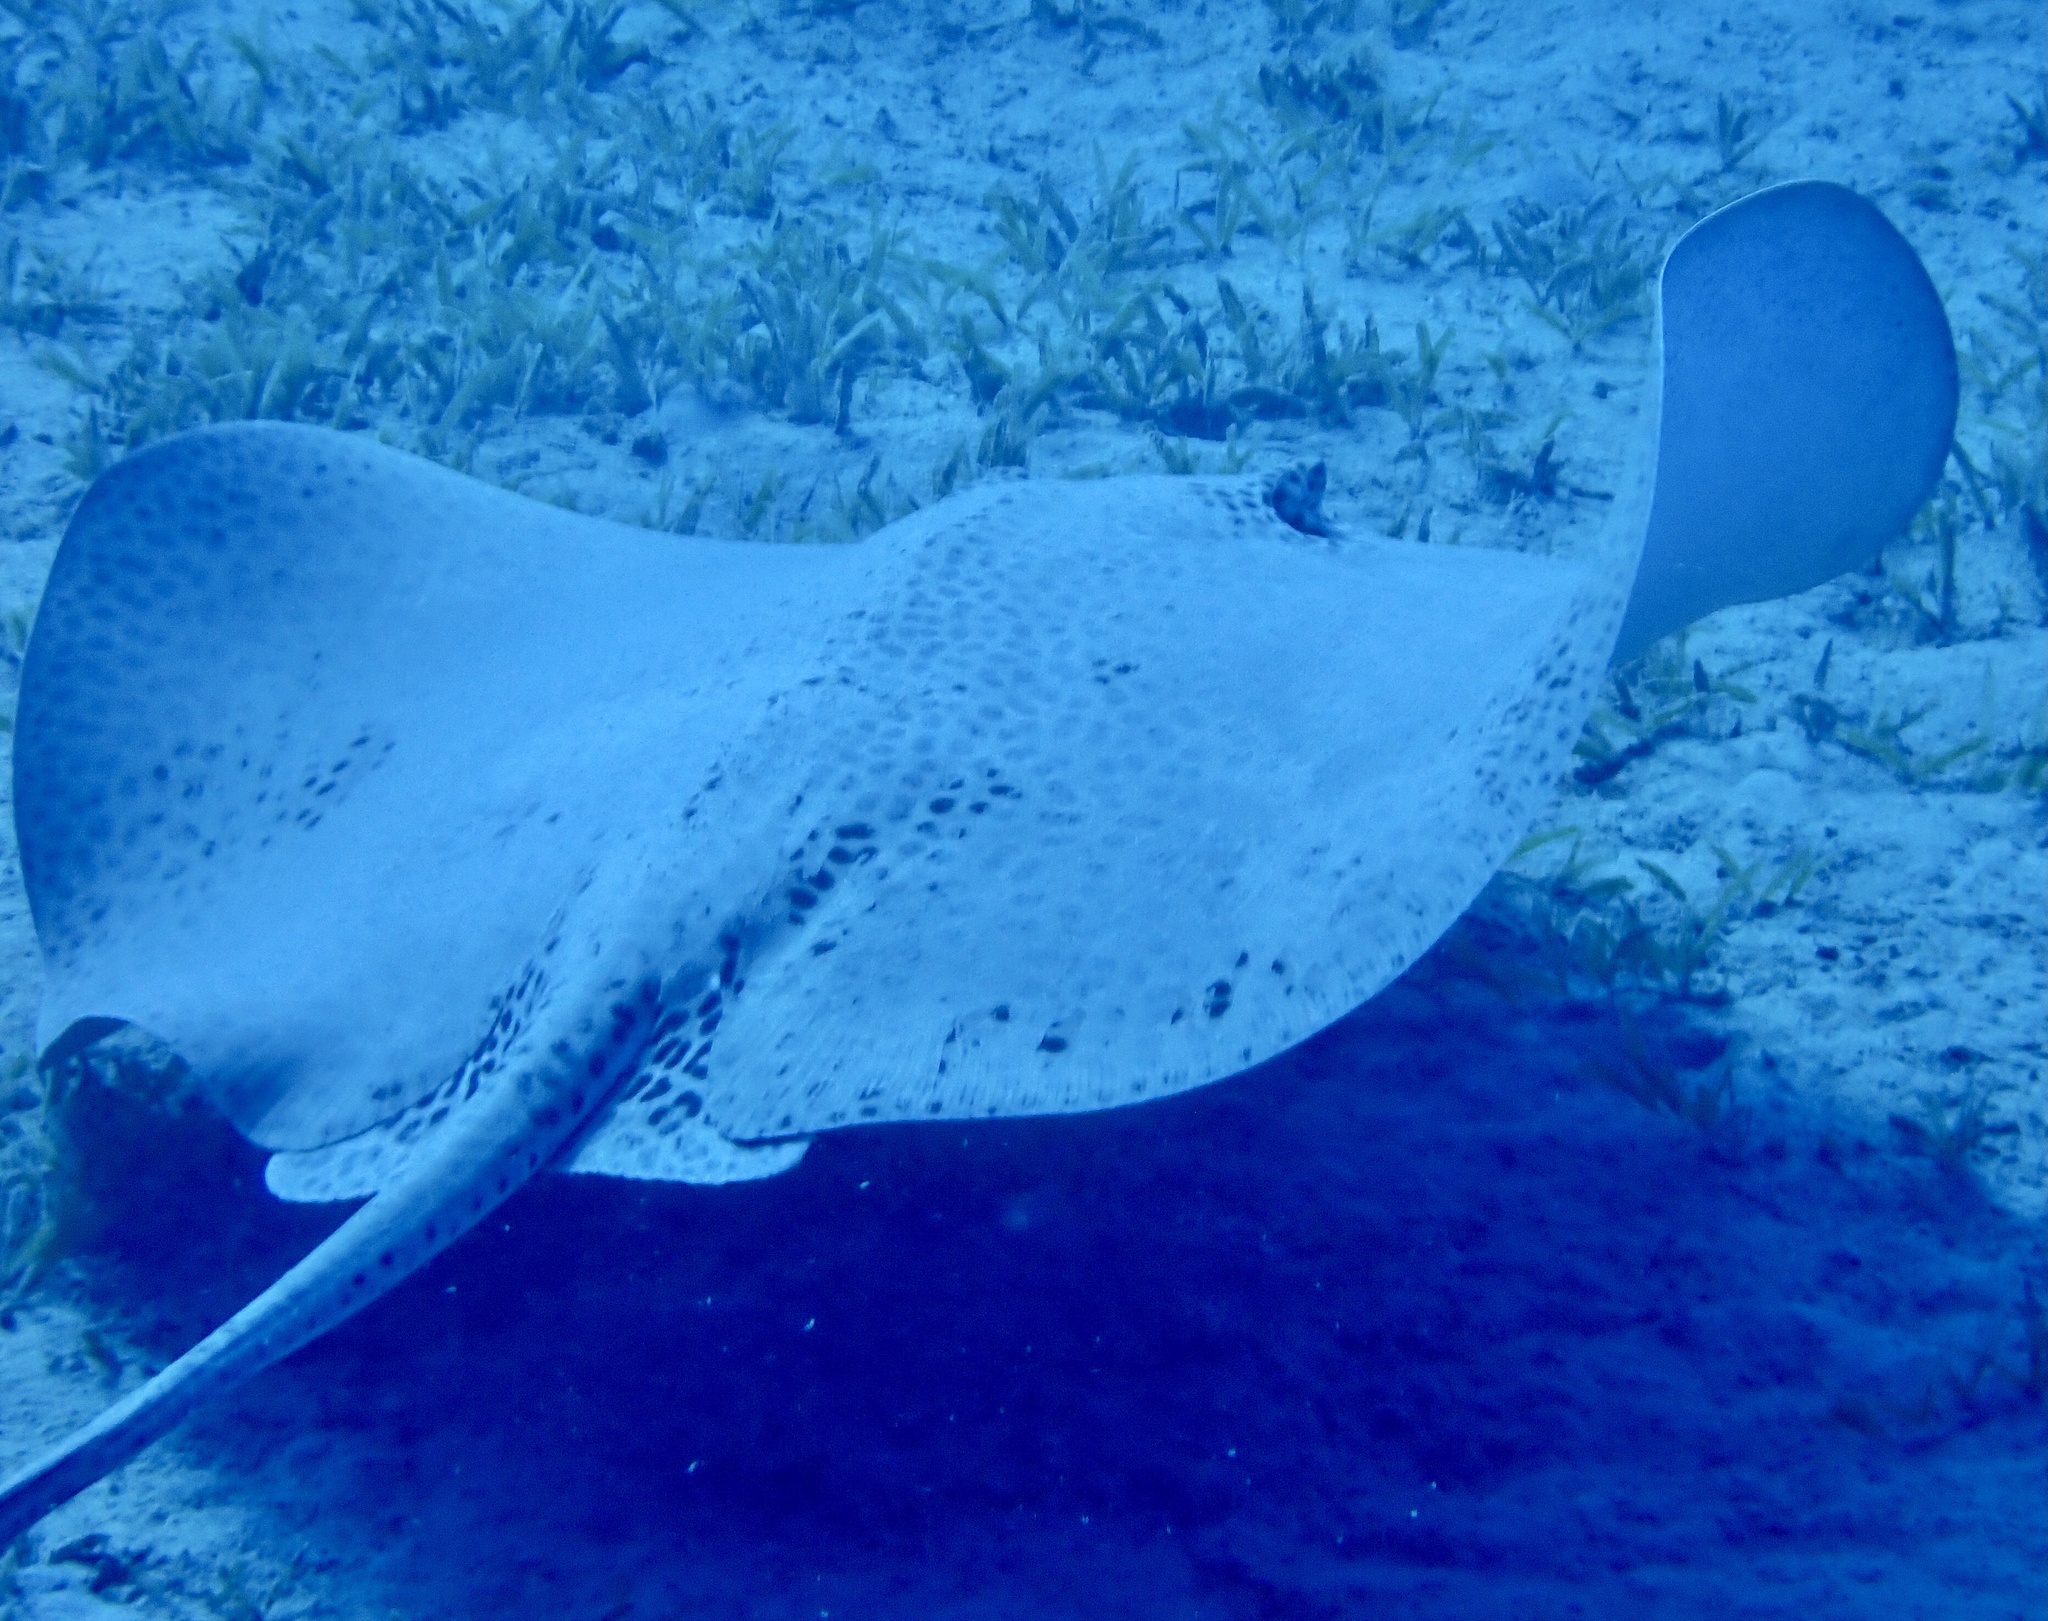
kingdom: Animalia
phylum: Chordata
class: Elasmobranchii
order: Myliobatiformes
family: Dasyatidae
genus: Himantura
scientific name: Himantura uarnak
